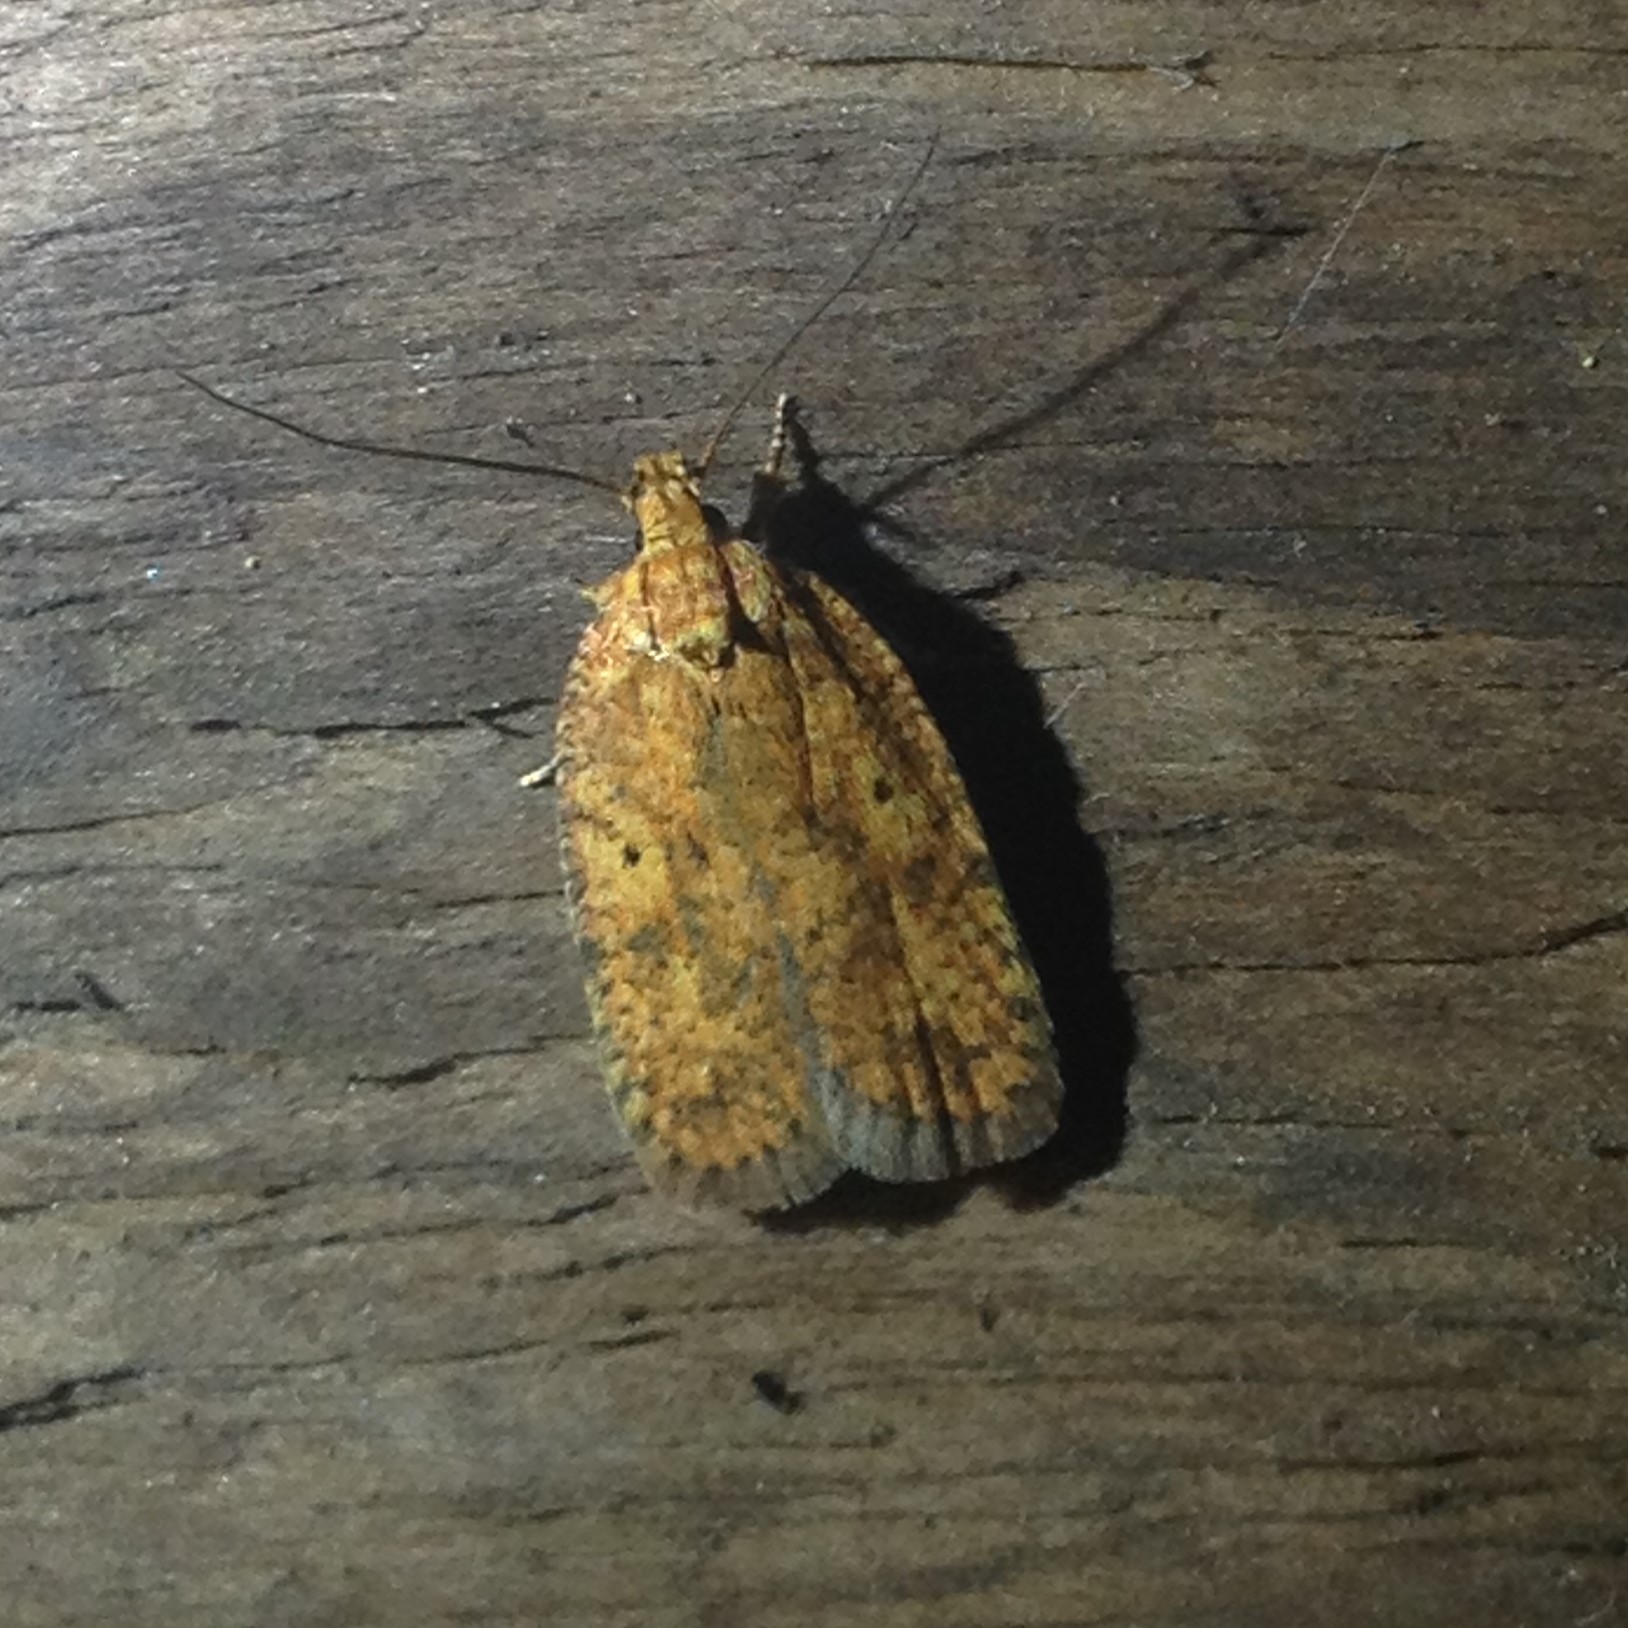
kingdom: Animalia
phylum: Arthropoda
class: Insecta
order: Lepidoptera
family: Depressariidae
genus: Agonopterix
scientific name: Agonopterix robiniella
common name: Four-dotted agonopterix moth
